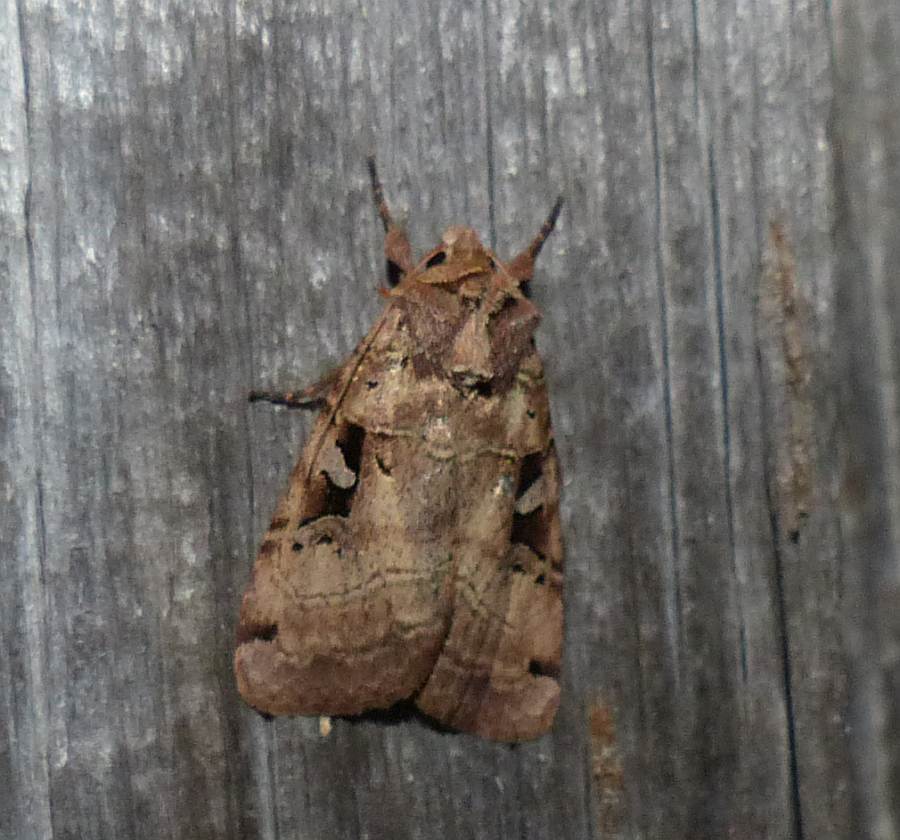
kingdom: Animalia
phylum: Arthropoda
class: Insecta
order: Lepidoptera
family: Noctuidae
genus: Xestia
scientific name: Xestia normaniana
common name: Norman's dart moth
